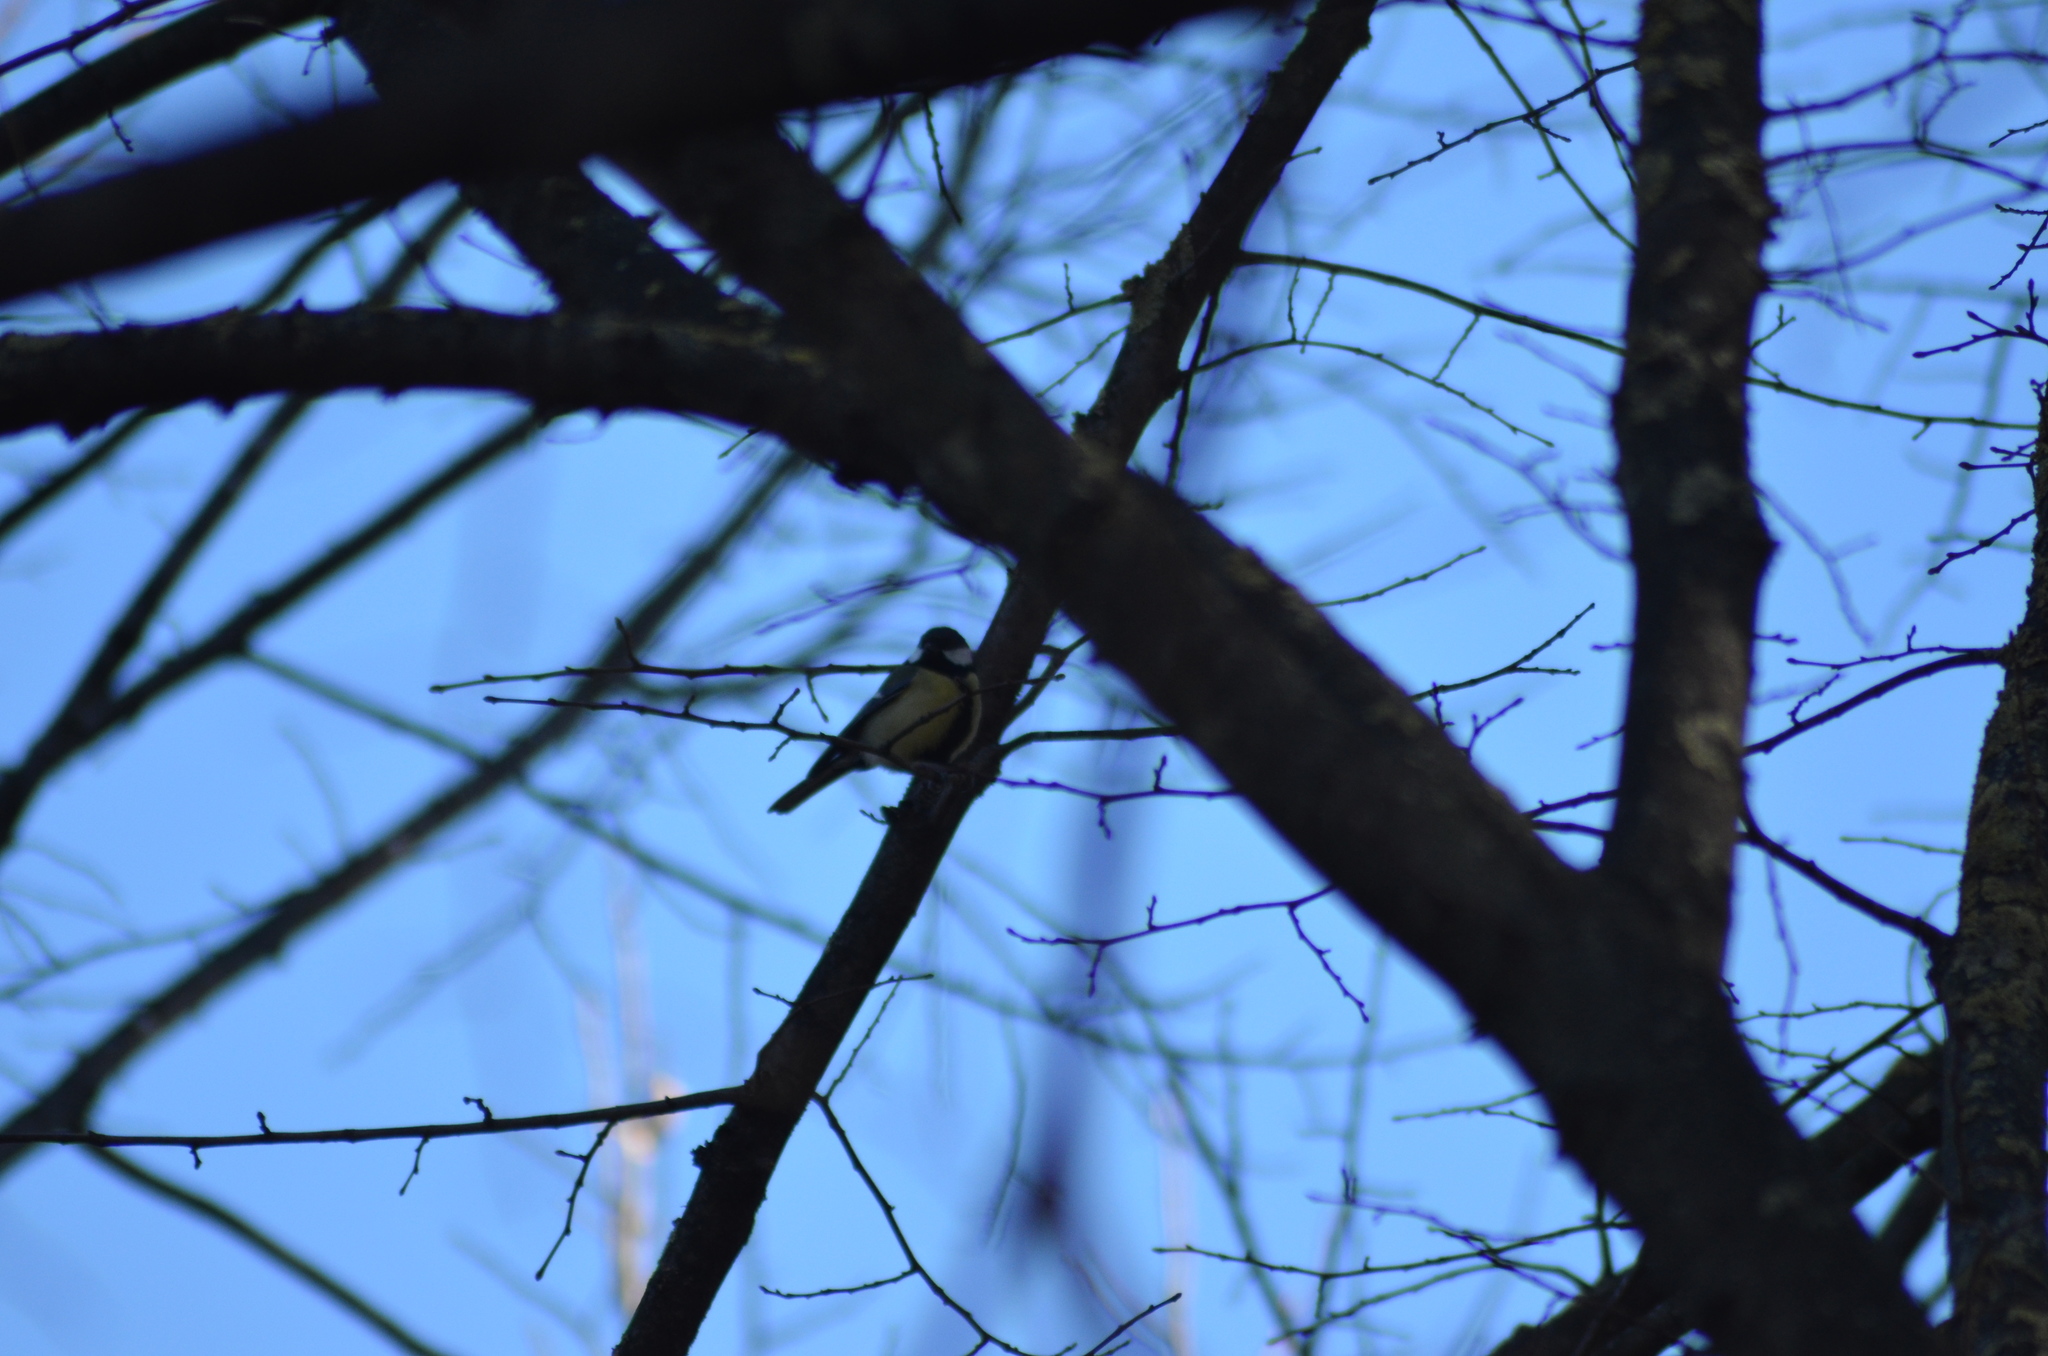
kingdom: Animalia
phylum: Chordata
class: Aves
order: Passeriformes
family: Paridae
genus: Parus
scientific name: Parus major
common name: Great tit
